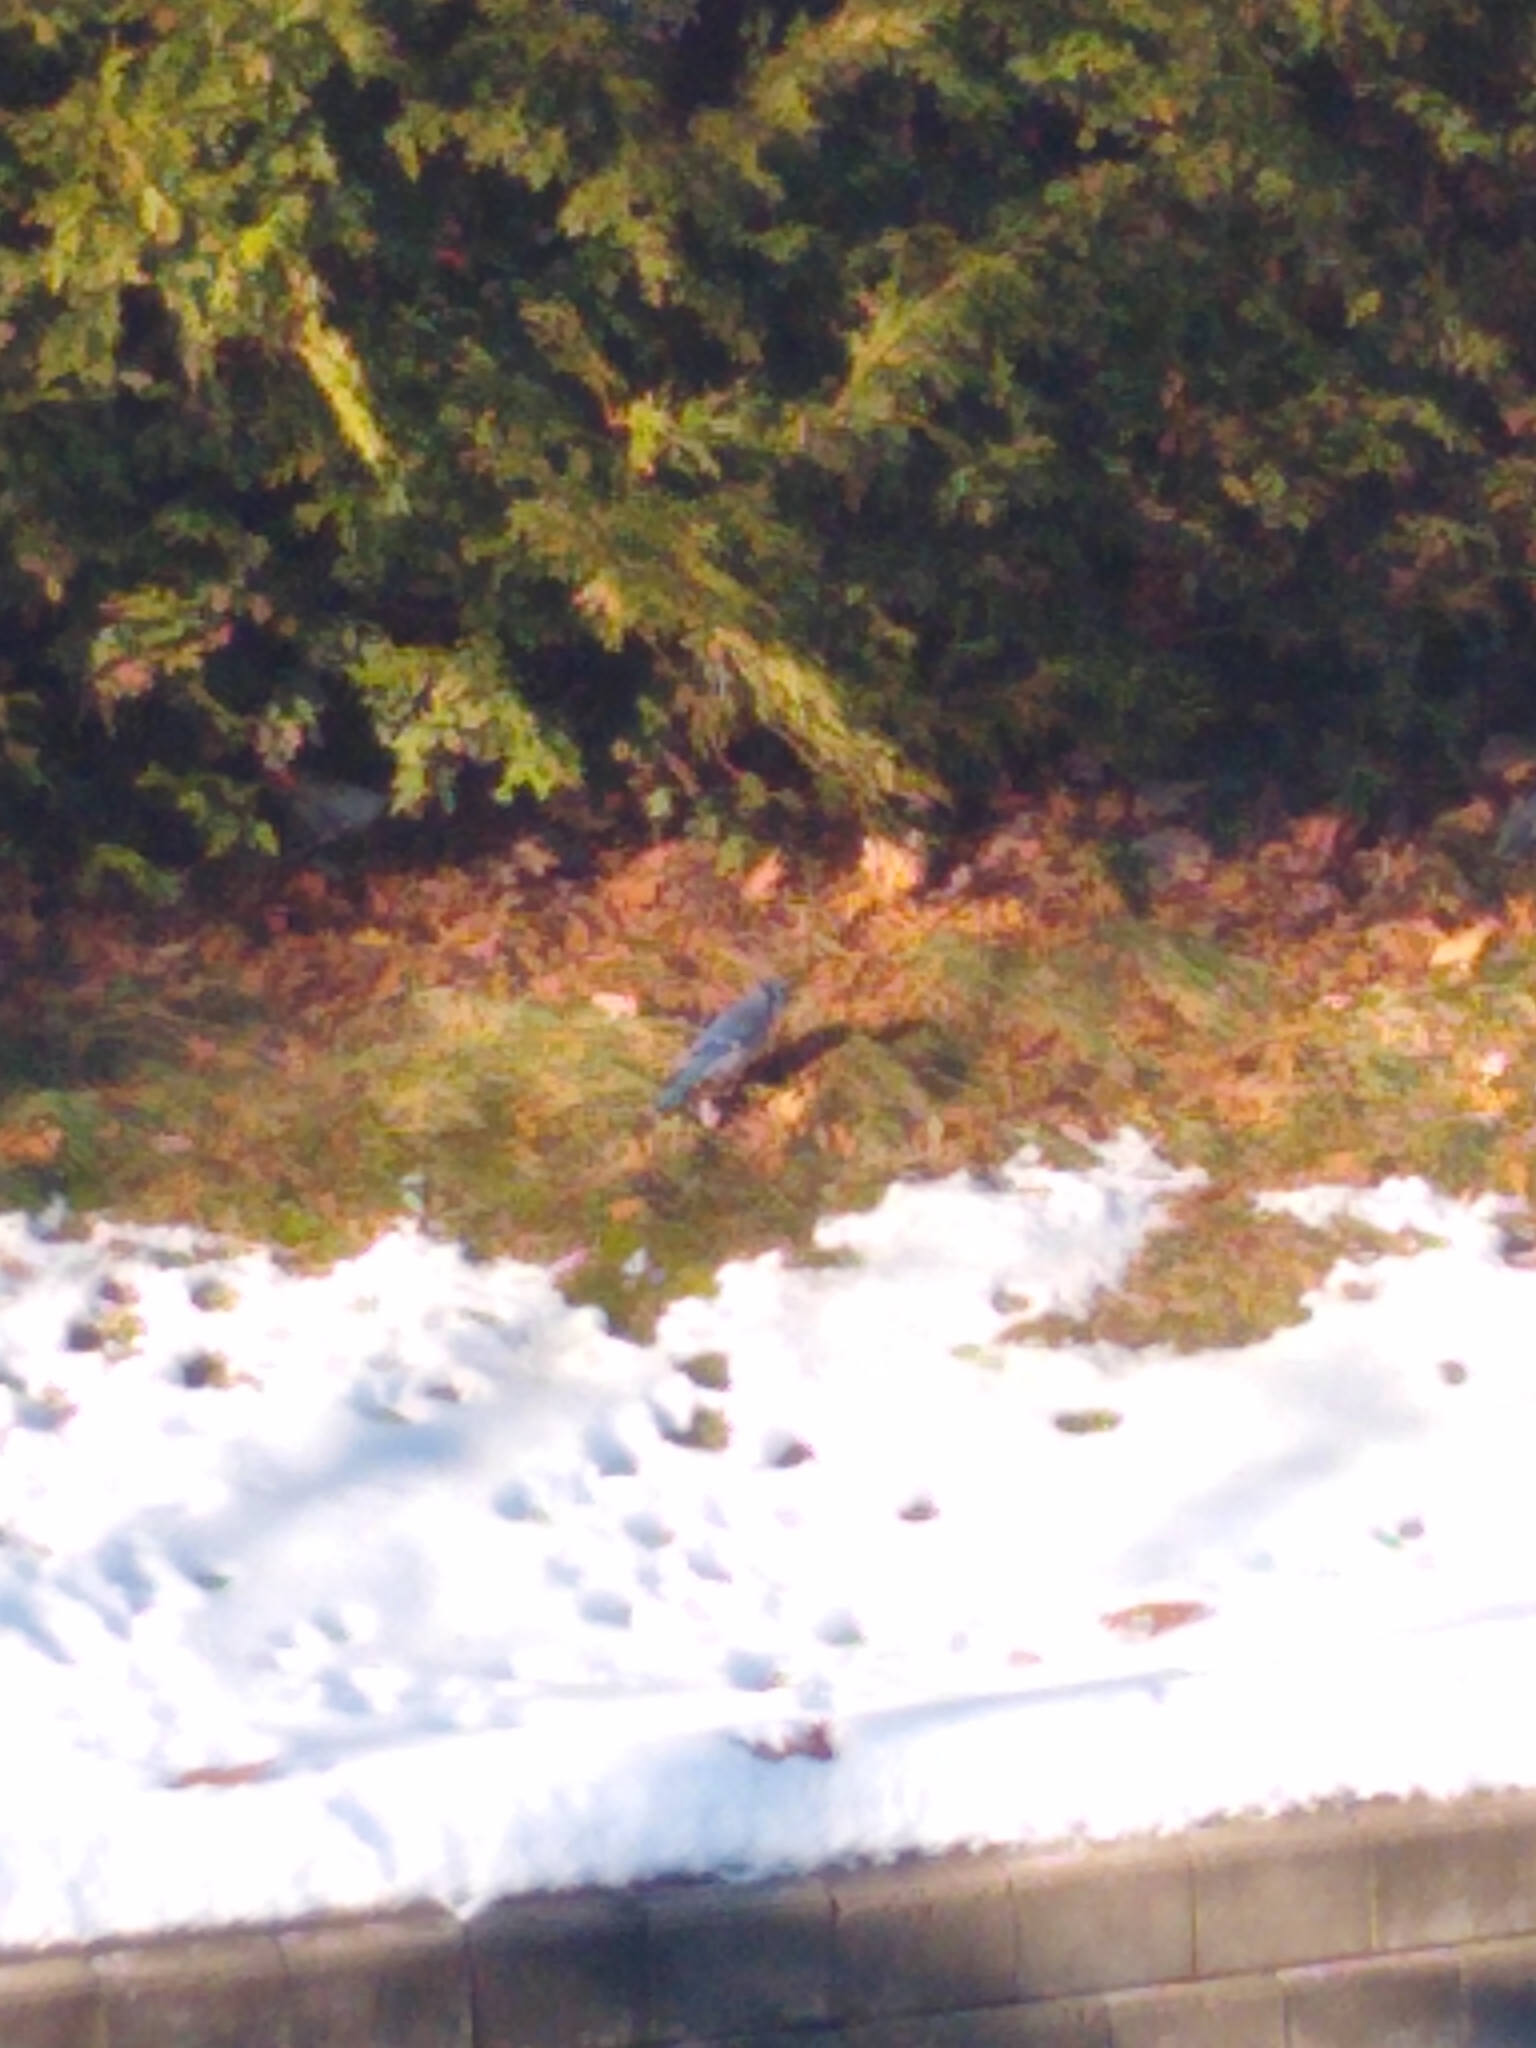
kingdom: Animalia
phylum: Chordata
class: Aves
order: Passeriformes
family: Corvidae
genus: Cyanocitta
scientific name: Cyanocitta cristata
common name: Blue jay
